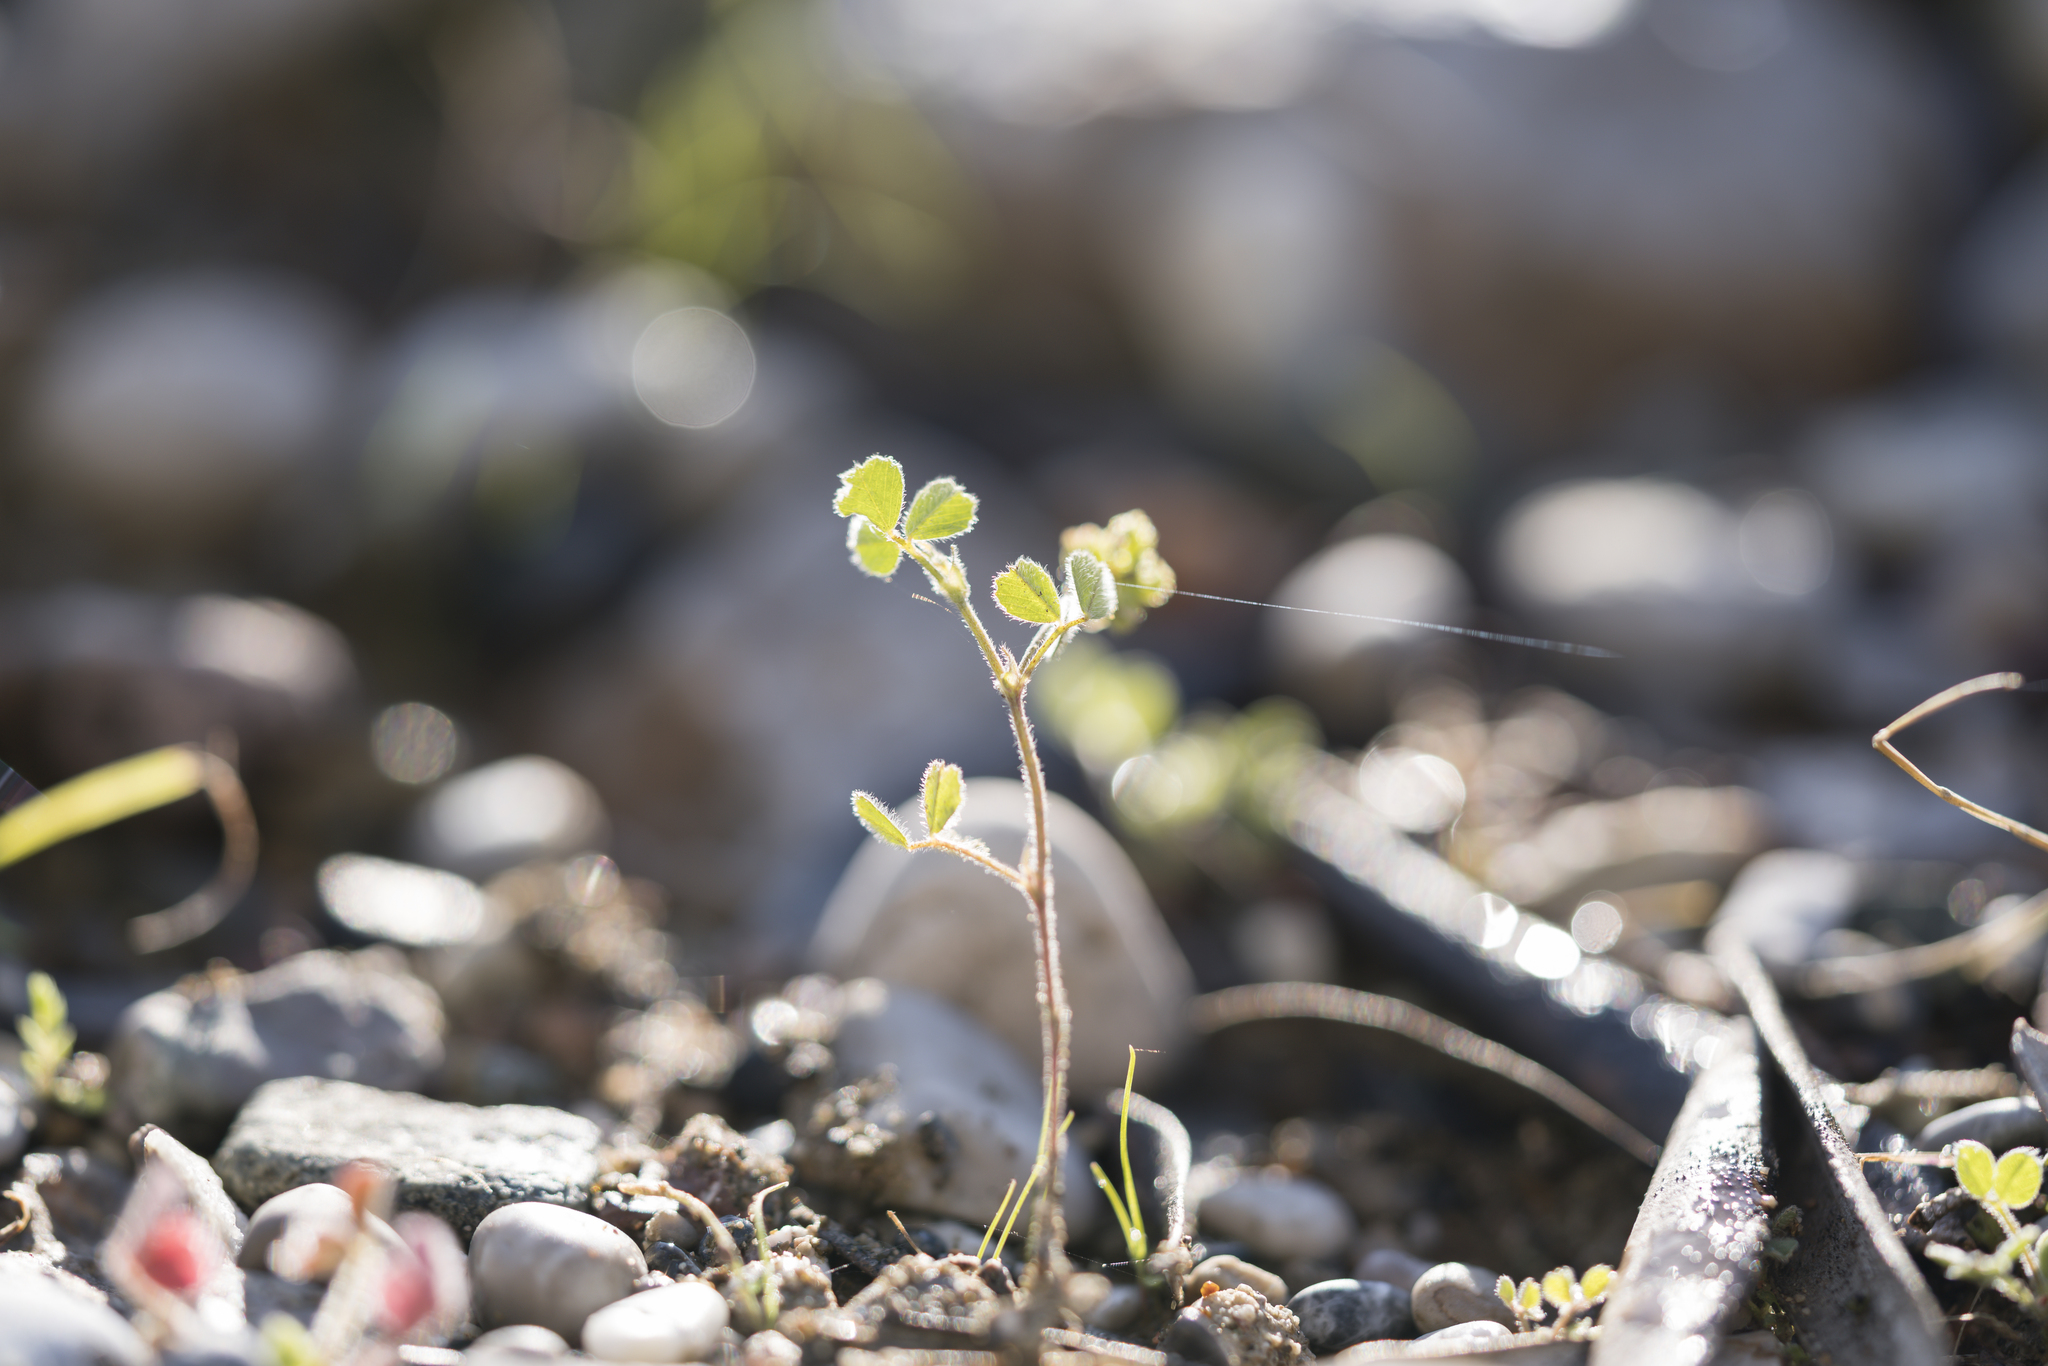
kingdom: Plantae
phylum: Tracheophyta
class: Magnoliopsida
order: Fabales
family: Fabaceae
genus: Medicago
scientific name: Medicago coronata
